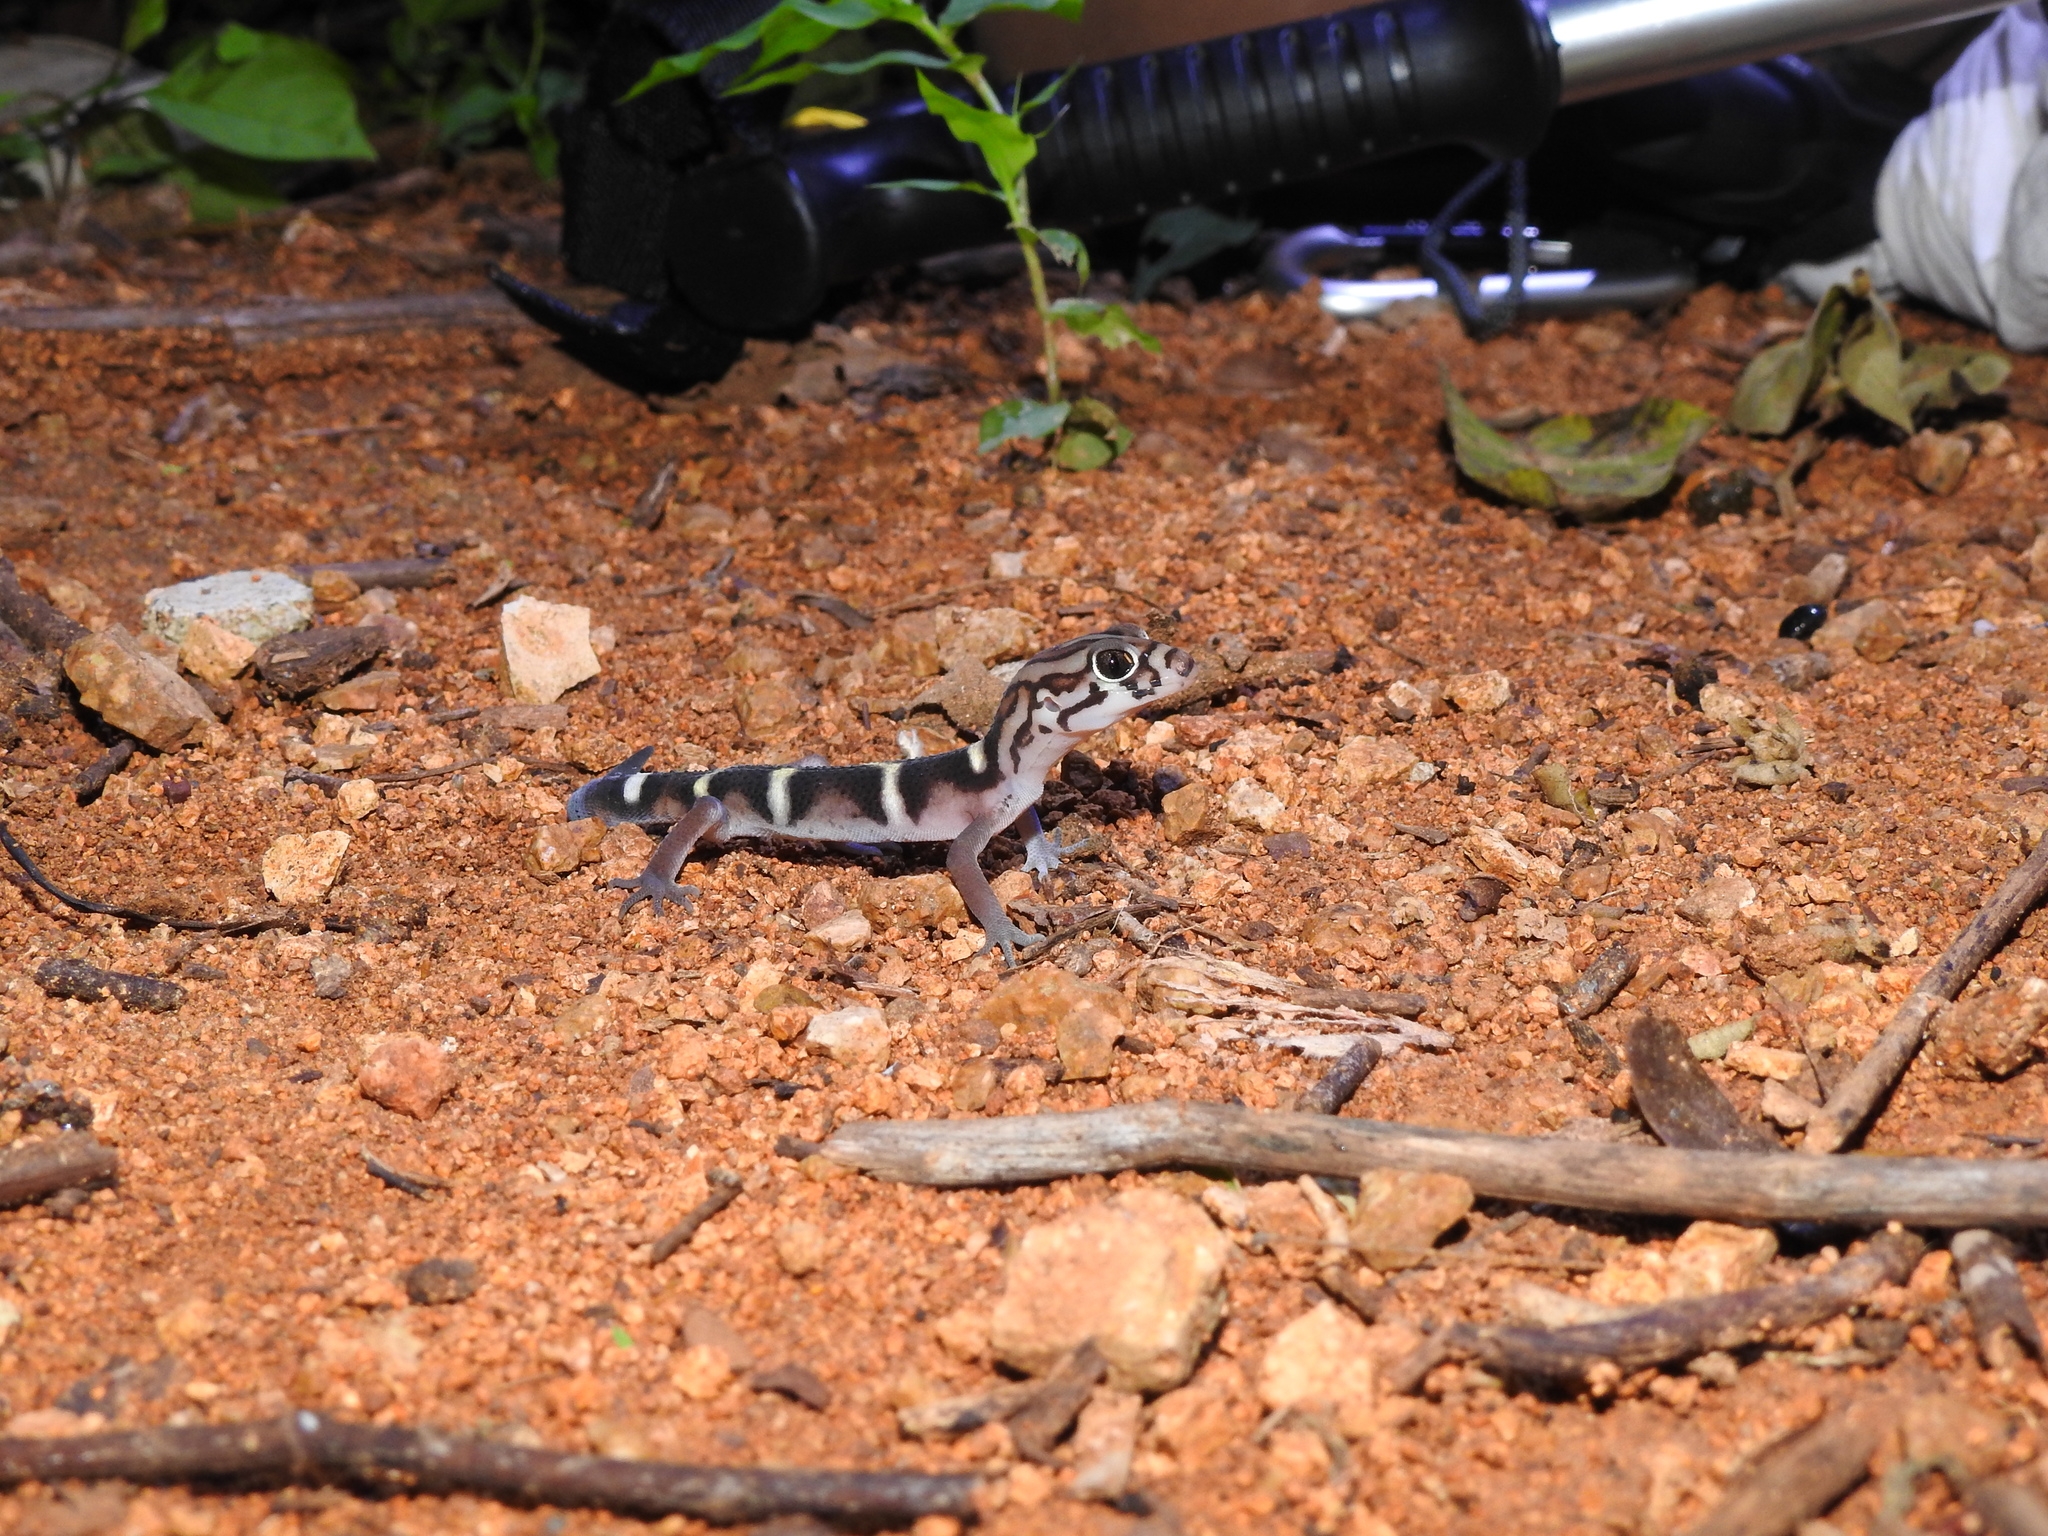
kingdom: Animalia
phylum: Chordata
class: Squamata
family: Eublepharidae
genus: Coleonyx
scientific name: Coleonyx
